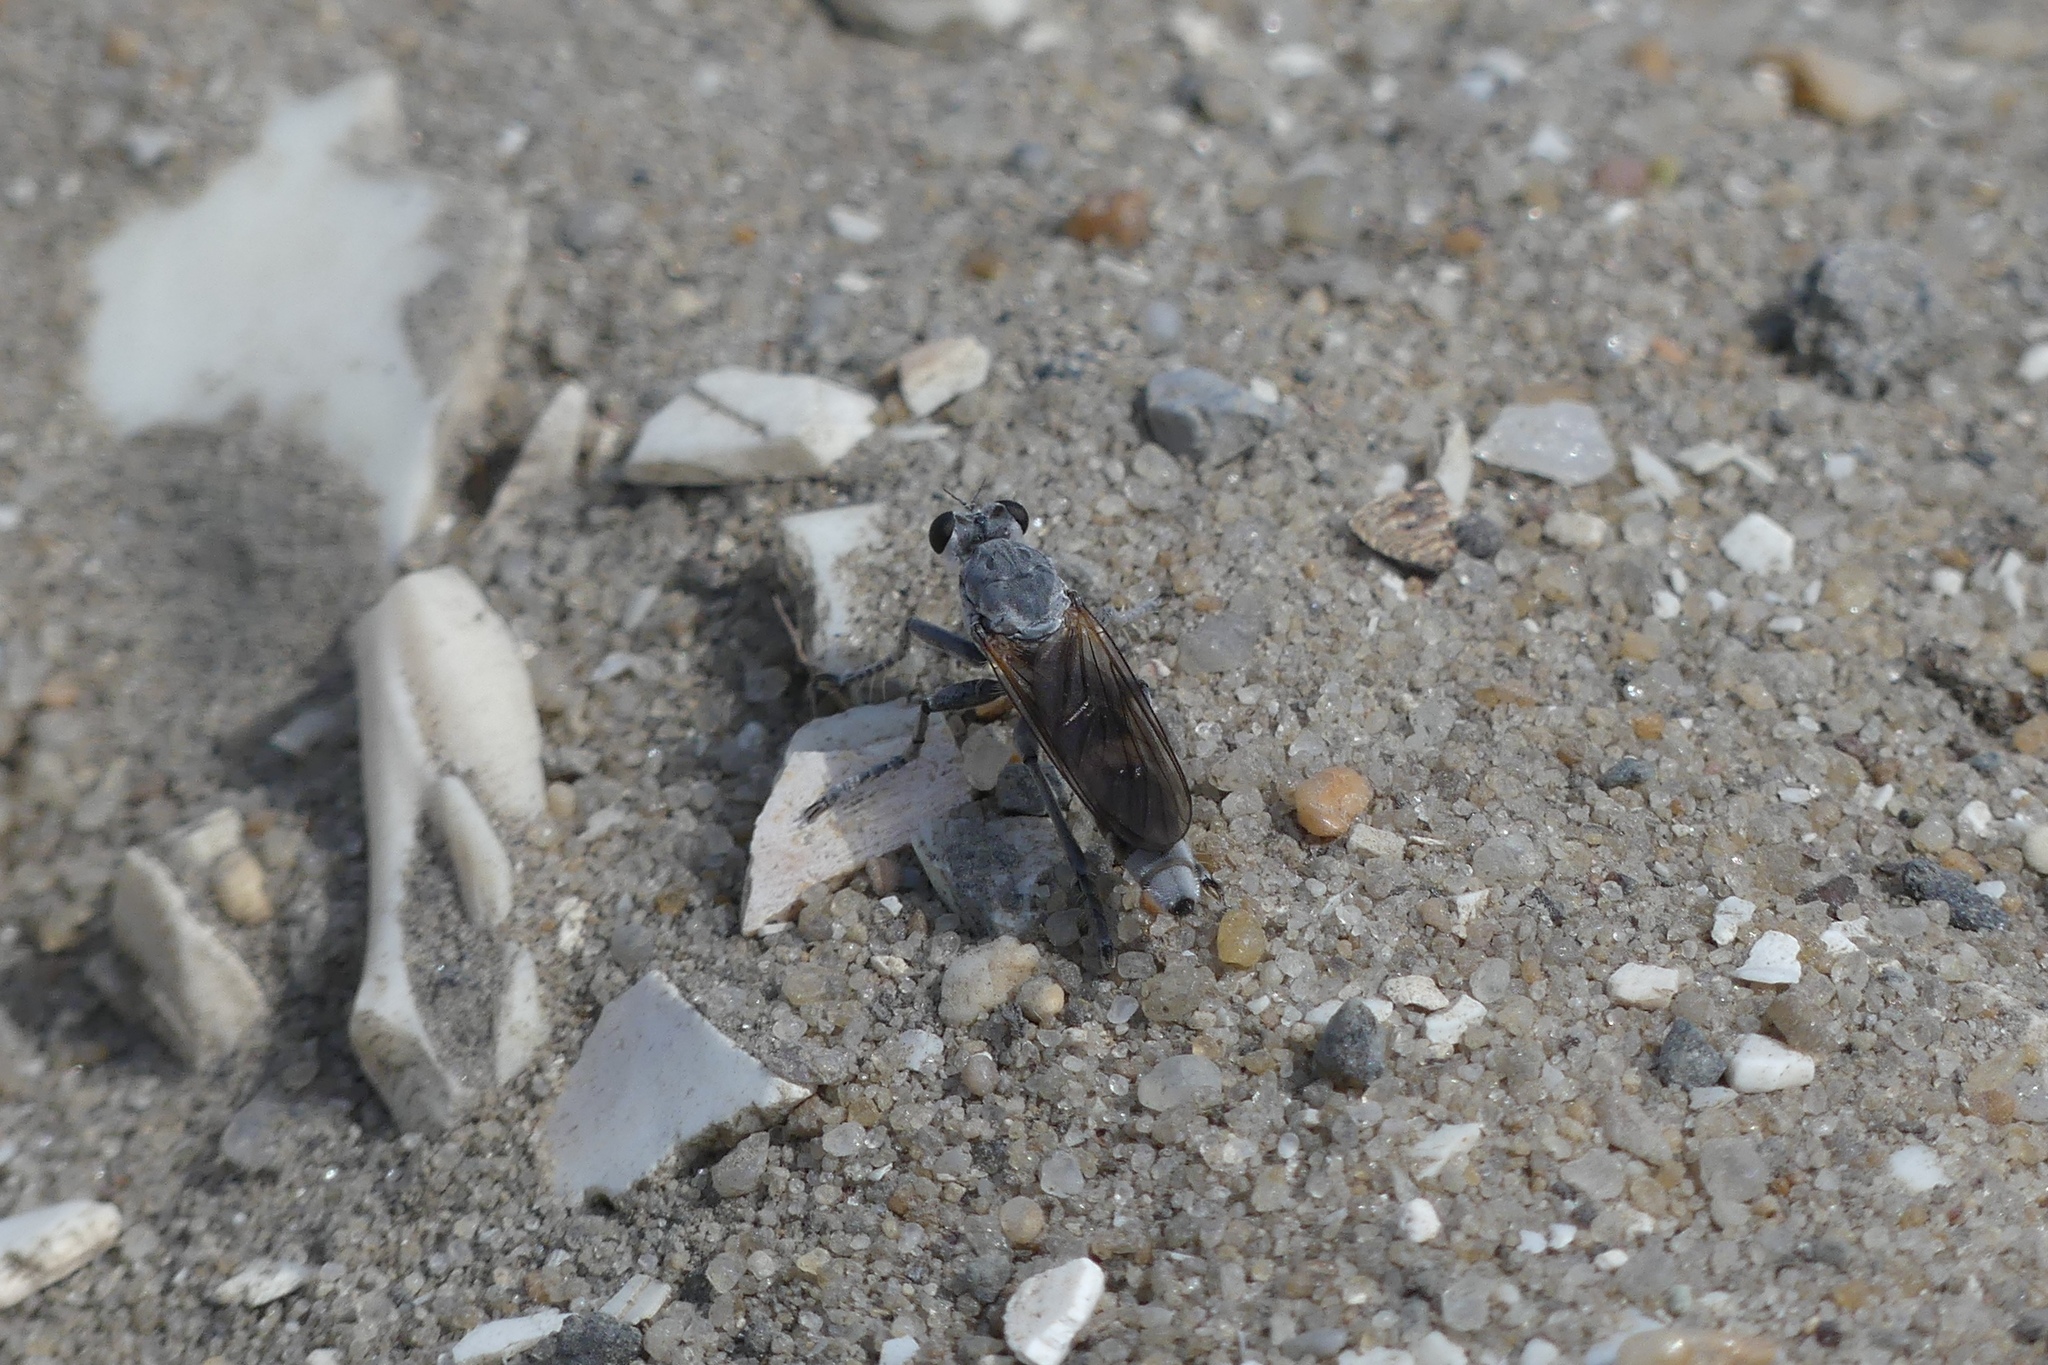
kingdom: Animalia
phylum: Arthropoda
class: Insecta
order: Diptera
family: Asilidae
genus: Stichopogon
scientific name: Stichopogon trifasciatus
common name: Three-banded robber fly
